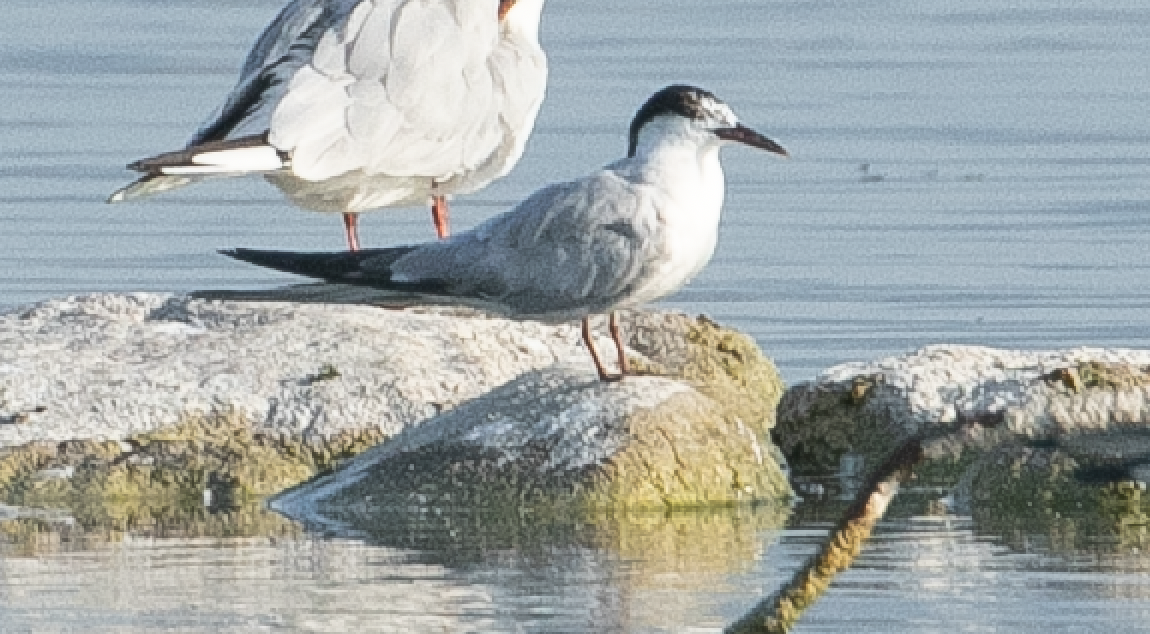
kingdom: Animalia
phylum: Chordata
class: Aves
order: Charadriiformes
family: Laridae
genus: Sterna
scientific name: Sterna hirundo
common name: Common tern
